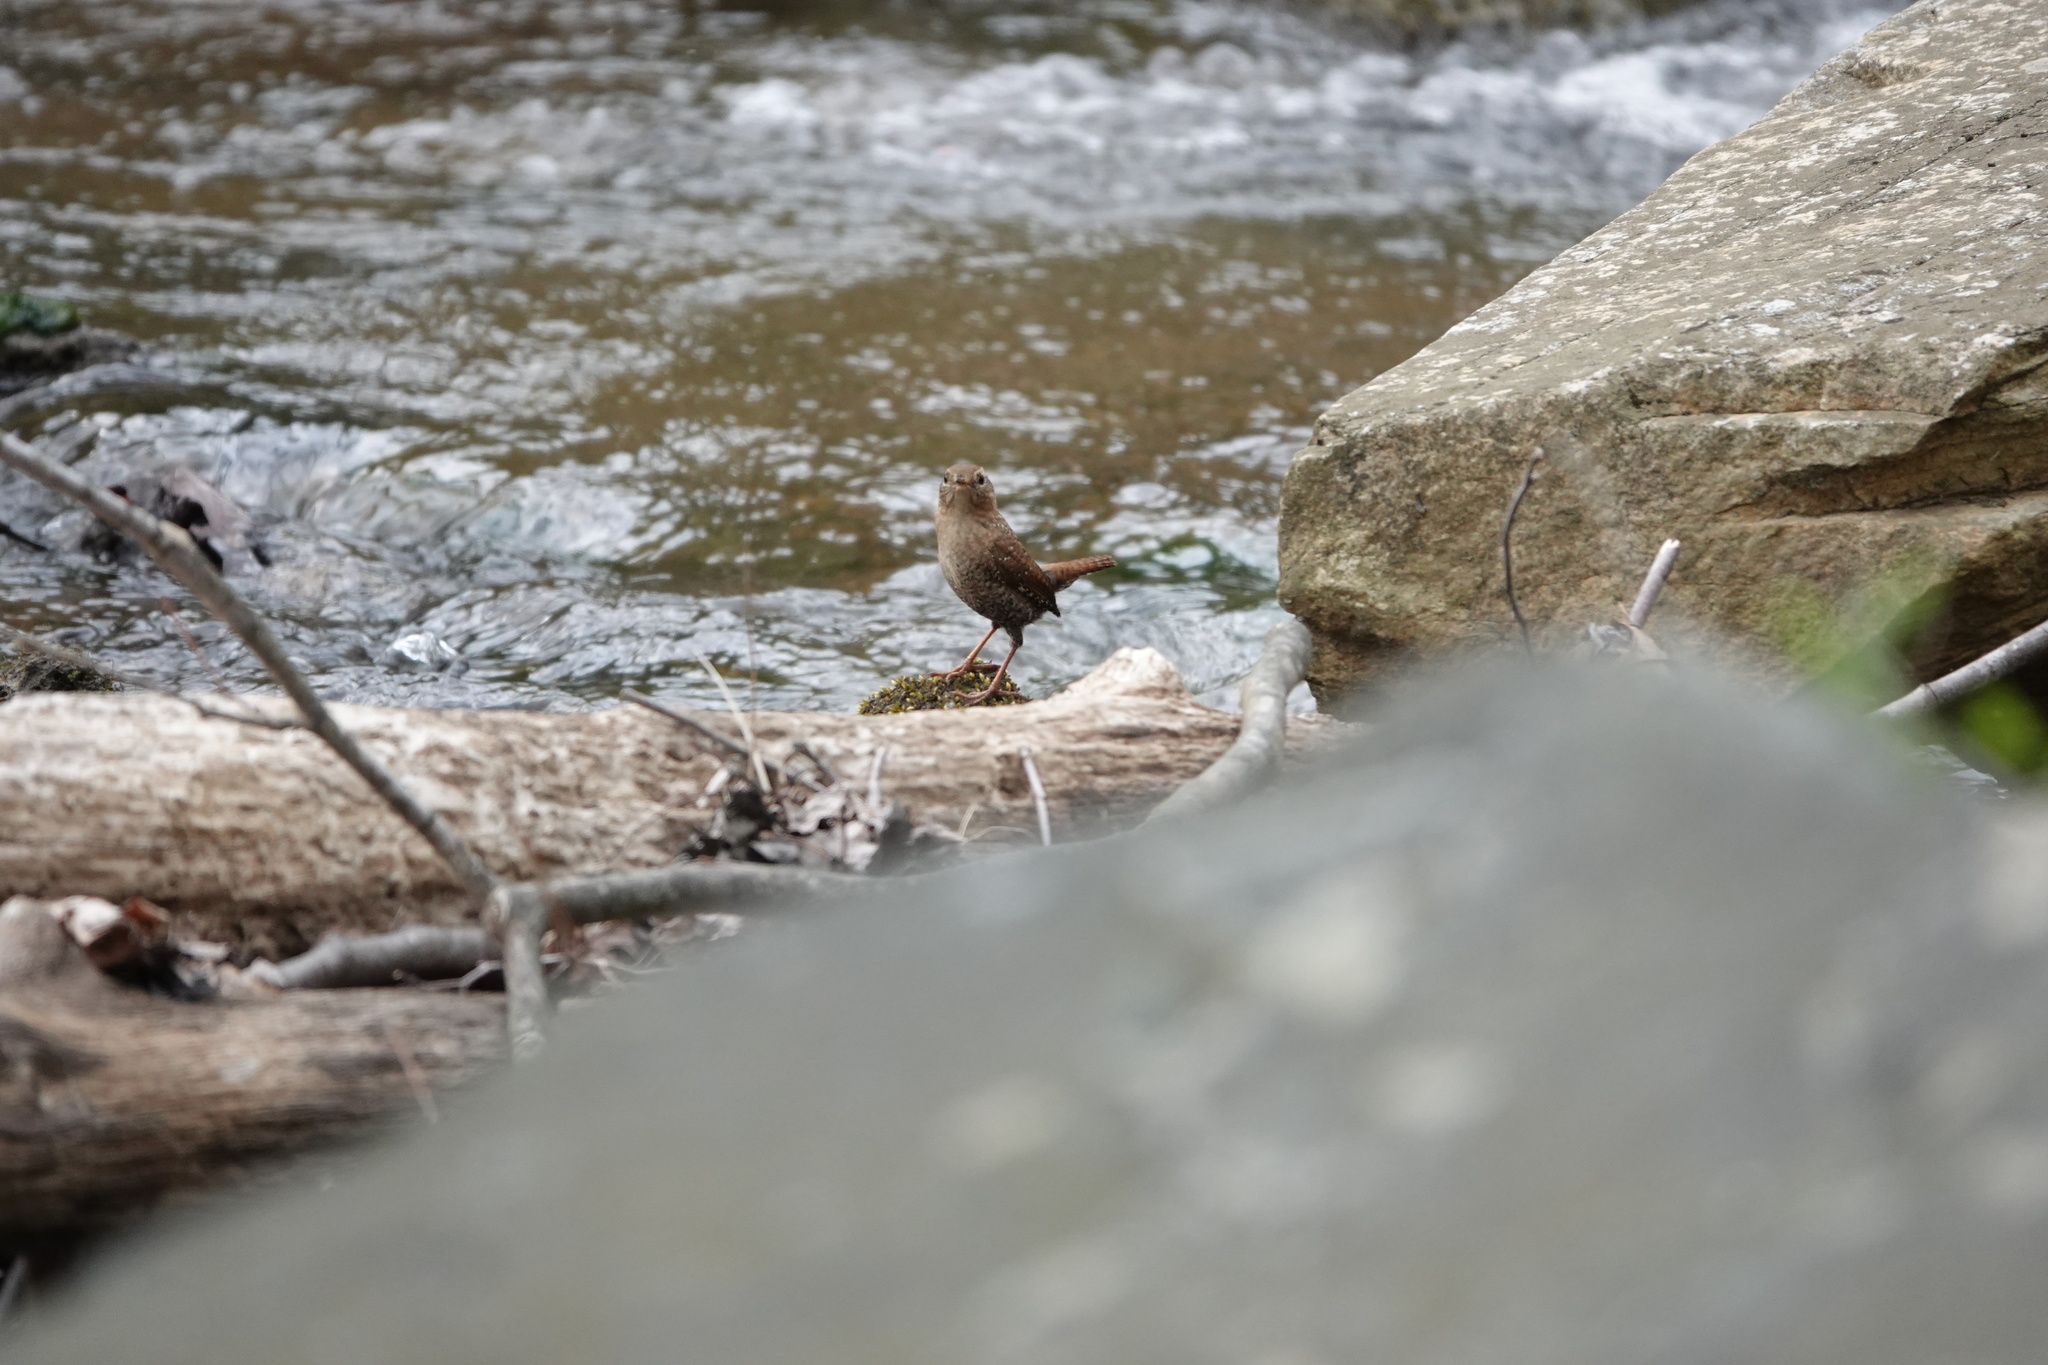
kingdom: Animalia
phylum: Chordata
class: Aves
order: Passeriformes
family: Troglodytidae
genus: Troglodytes
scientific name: Troglodytes hiemalis
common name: Winter wren
